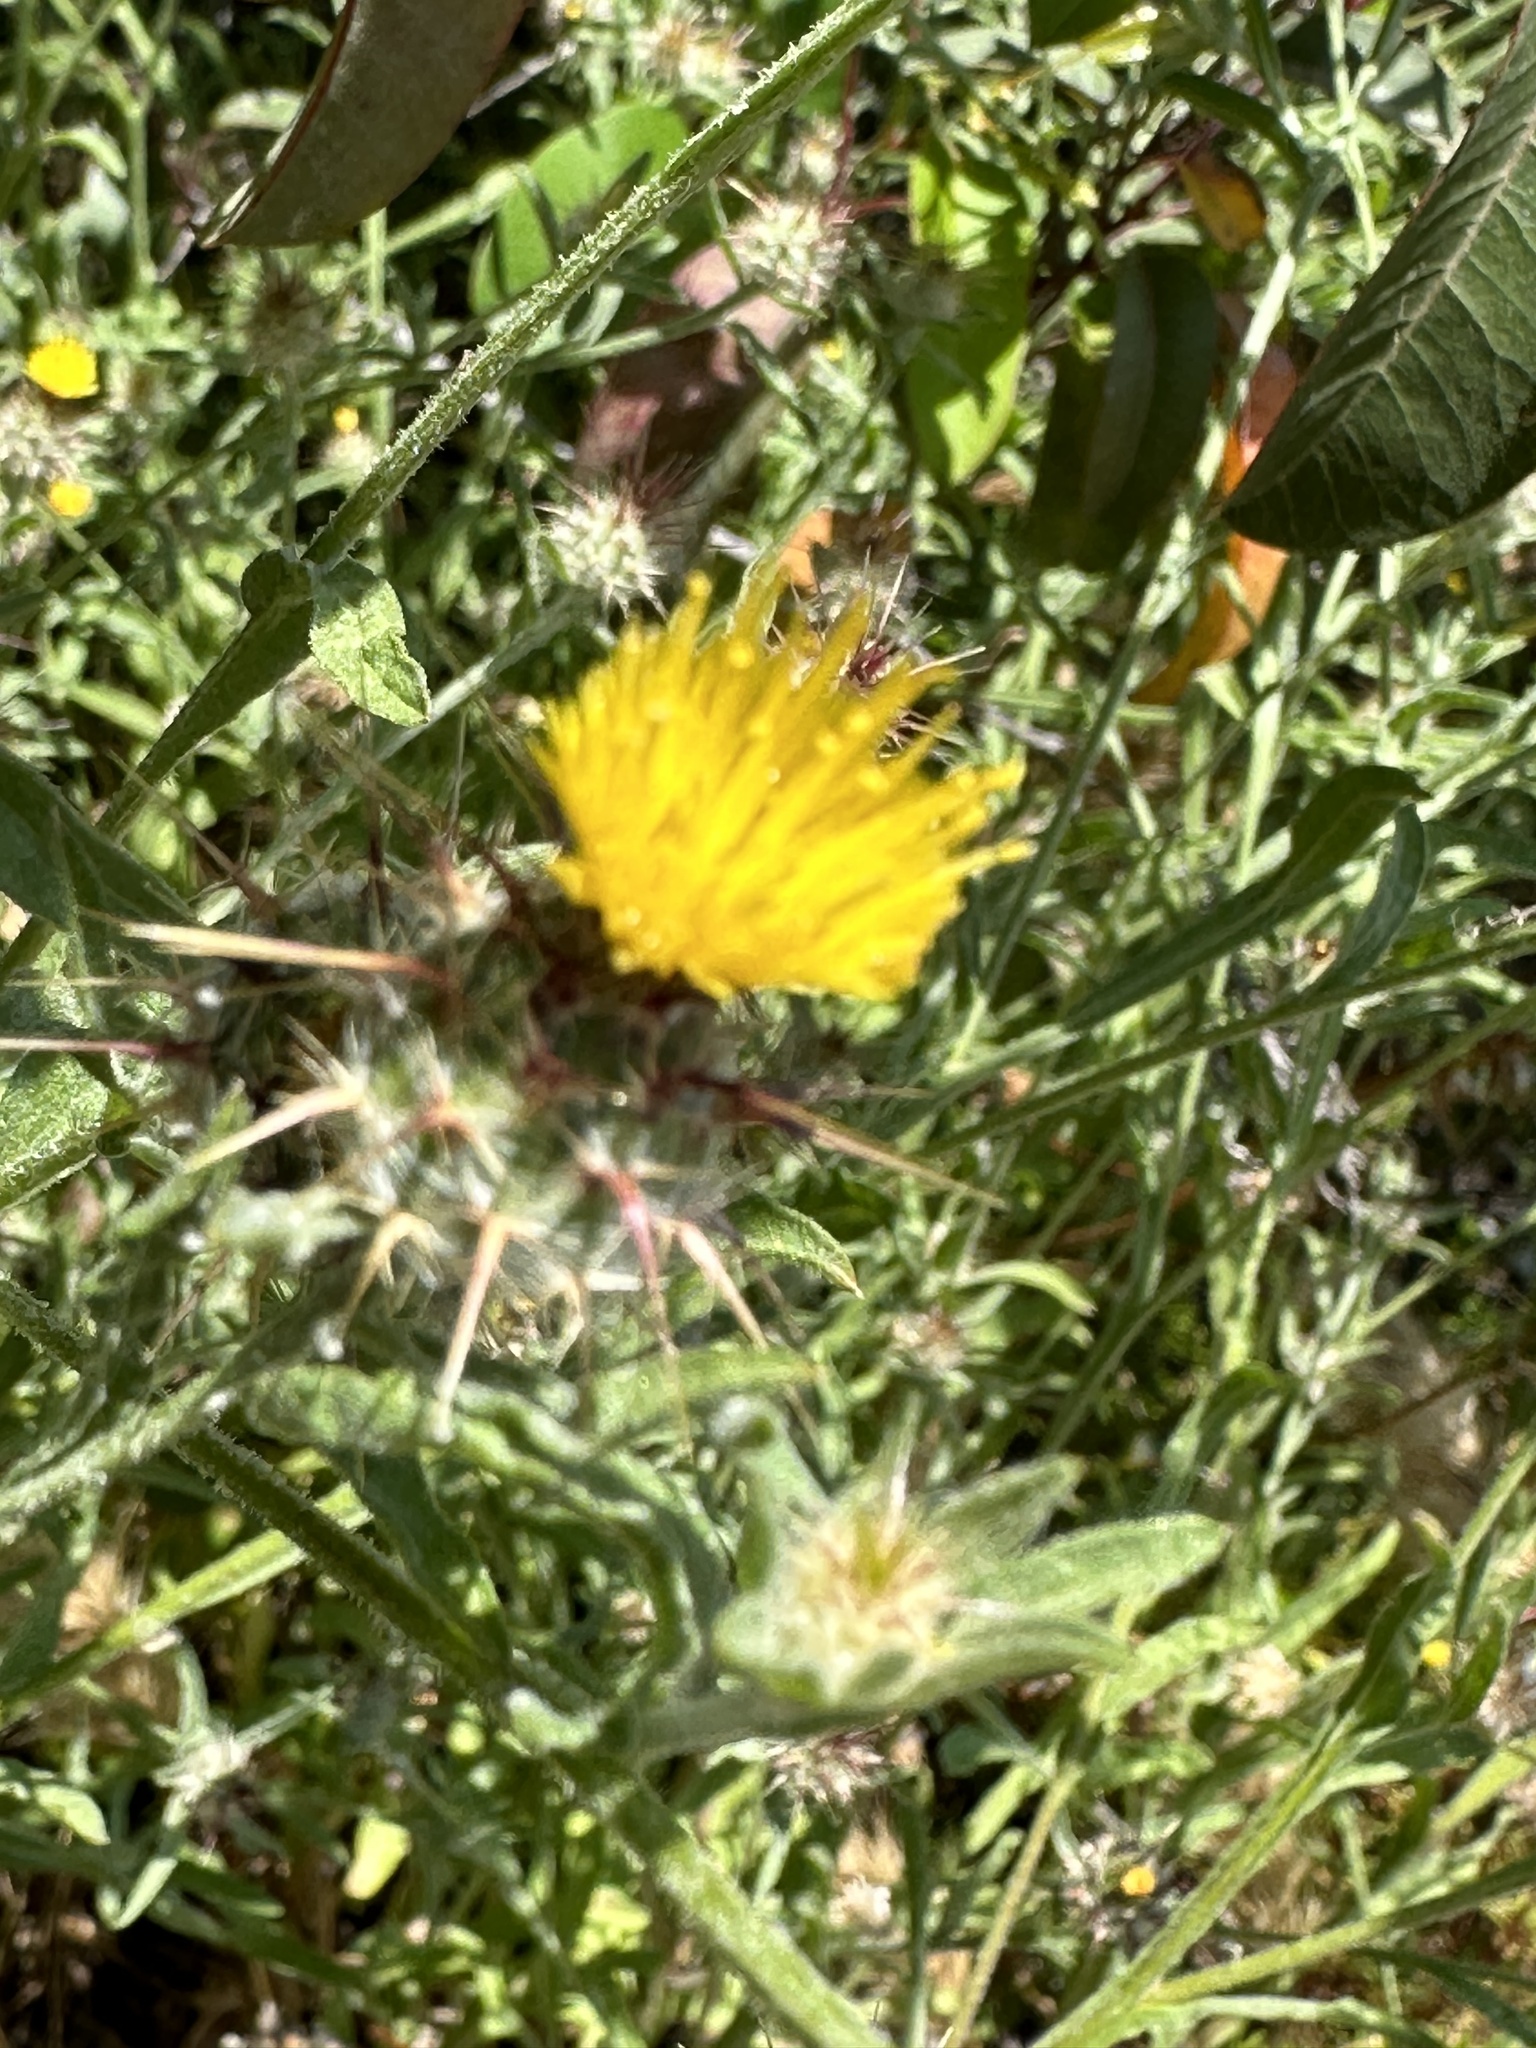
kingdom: Plantae
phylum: Tracheophyta
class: Magnoliopsida
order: Asterales
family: Asteraceae
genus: Centaurea
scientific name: Centaurea melitensis
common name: Maltese star-thistle
